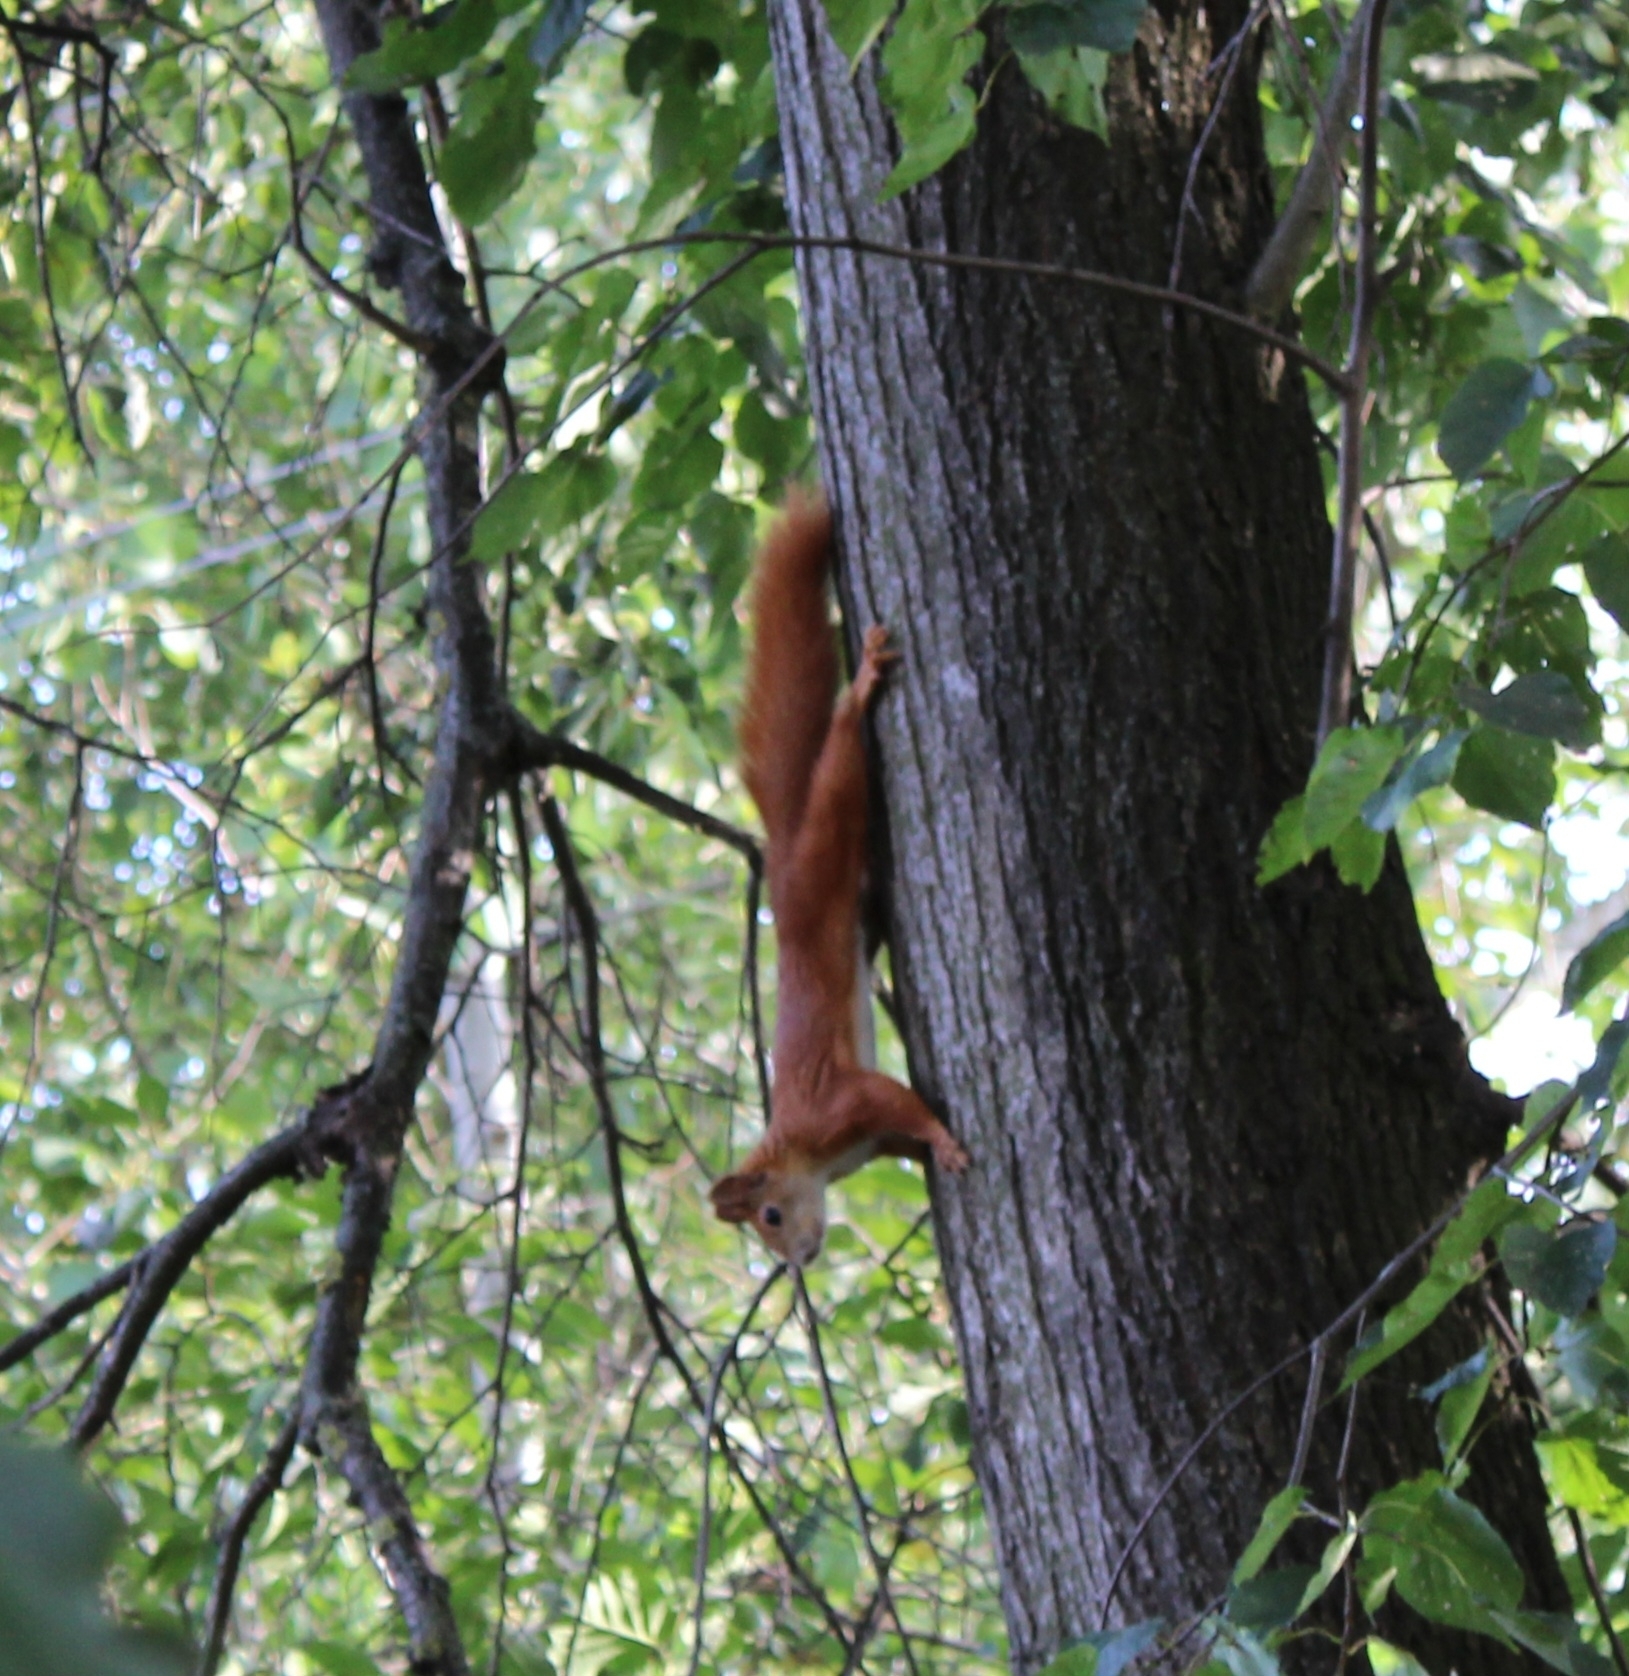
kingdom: Animalia
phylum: Chordata
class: Mammalia
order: Rodentia
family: Sciuridae
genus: Sciurus
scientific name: Sciurus vulgaris
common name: Eurasian red squirrel
